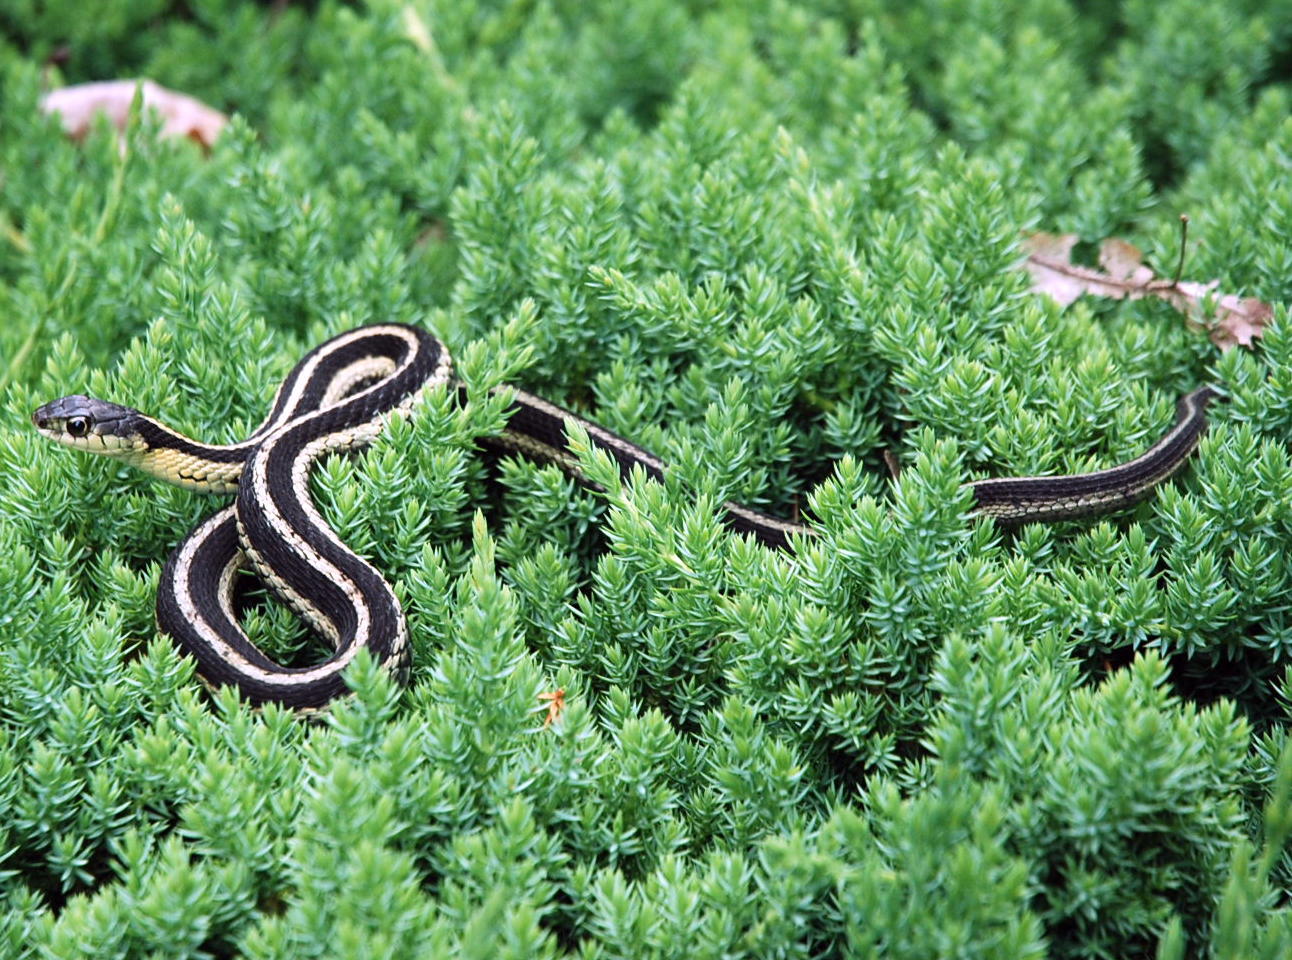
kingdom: Animalia
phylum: Chordata
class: Squamata
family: Colubridae
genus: Thamnophis
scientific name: Thamnophis sirtalis
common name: Common garter snake
